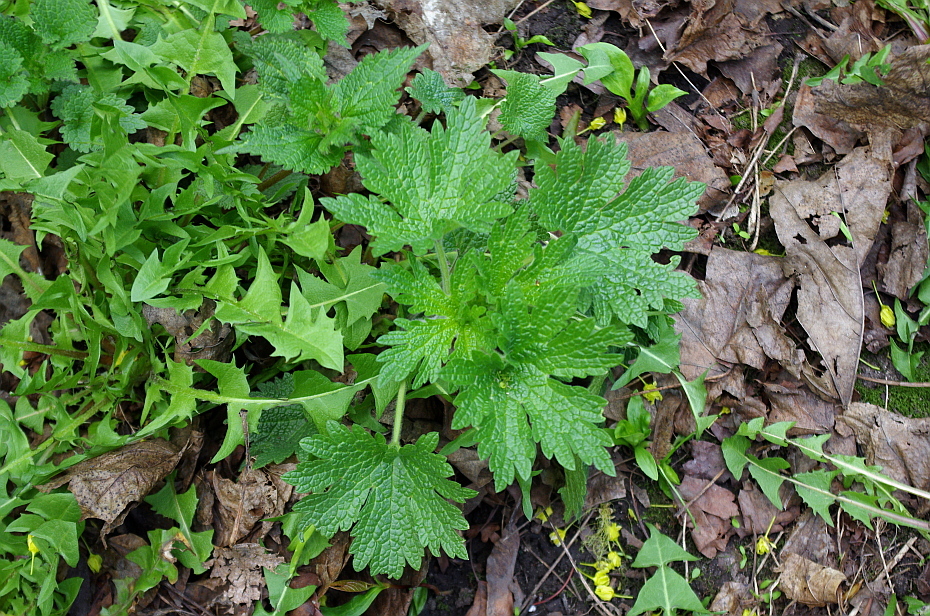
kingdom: Plantae
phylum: Tracheophyta
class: Magnoliopsida
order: Lamiales
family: Lamiaceae
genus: Leonurus
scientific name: Leonurus quinquelobatus
